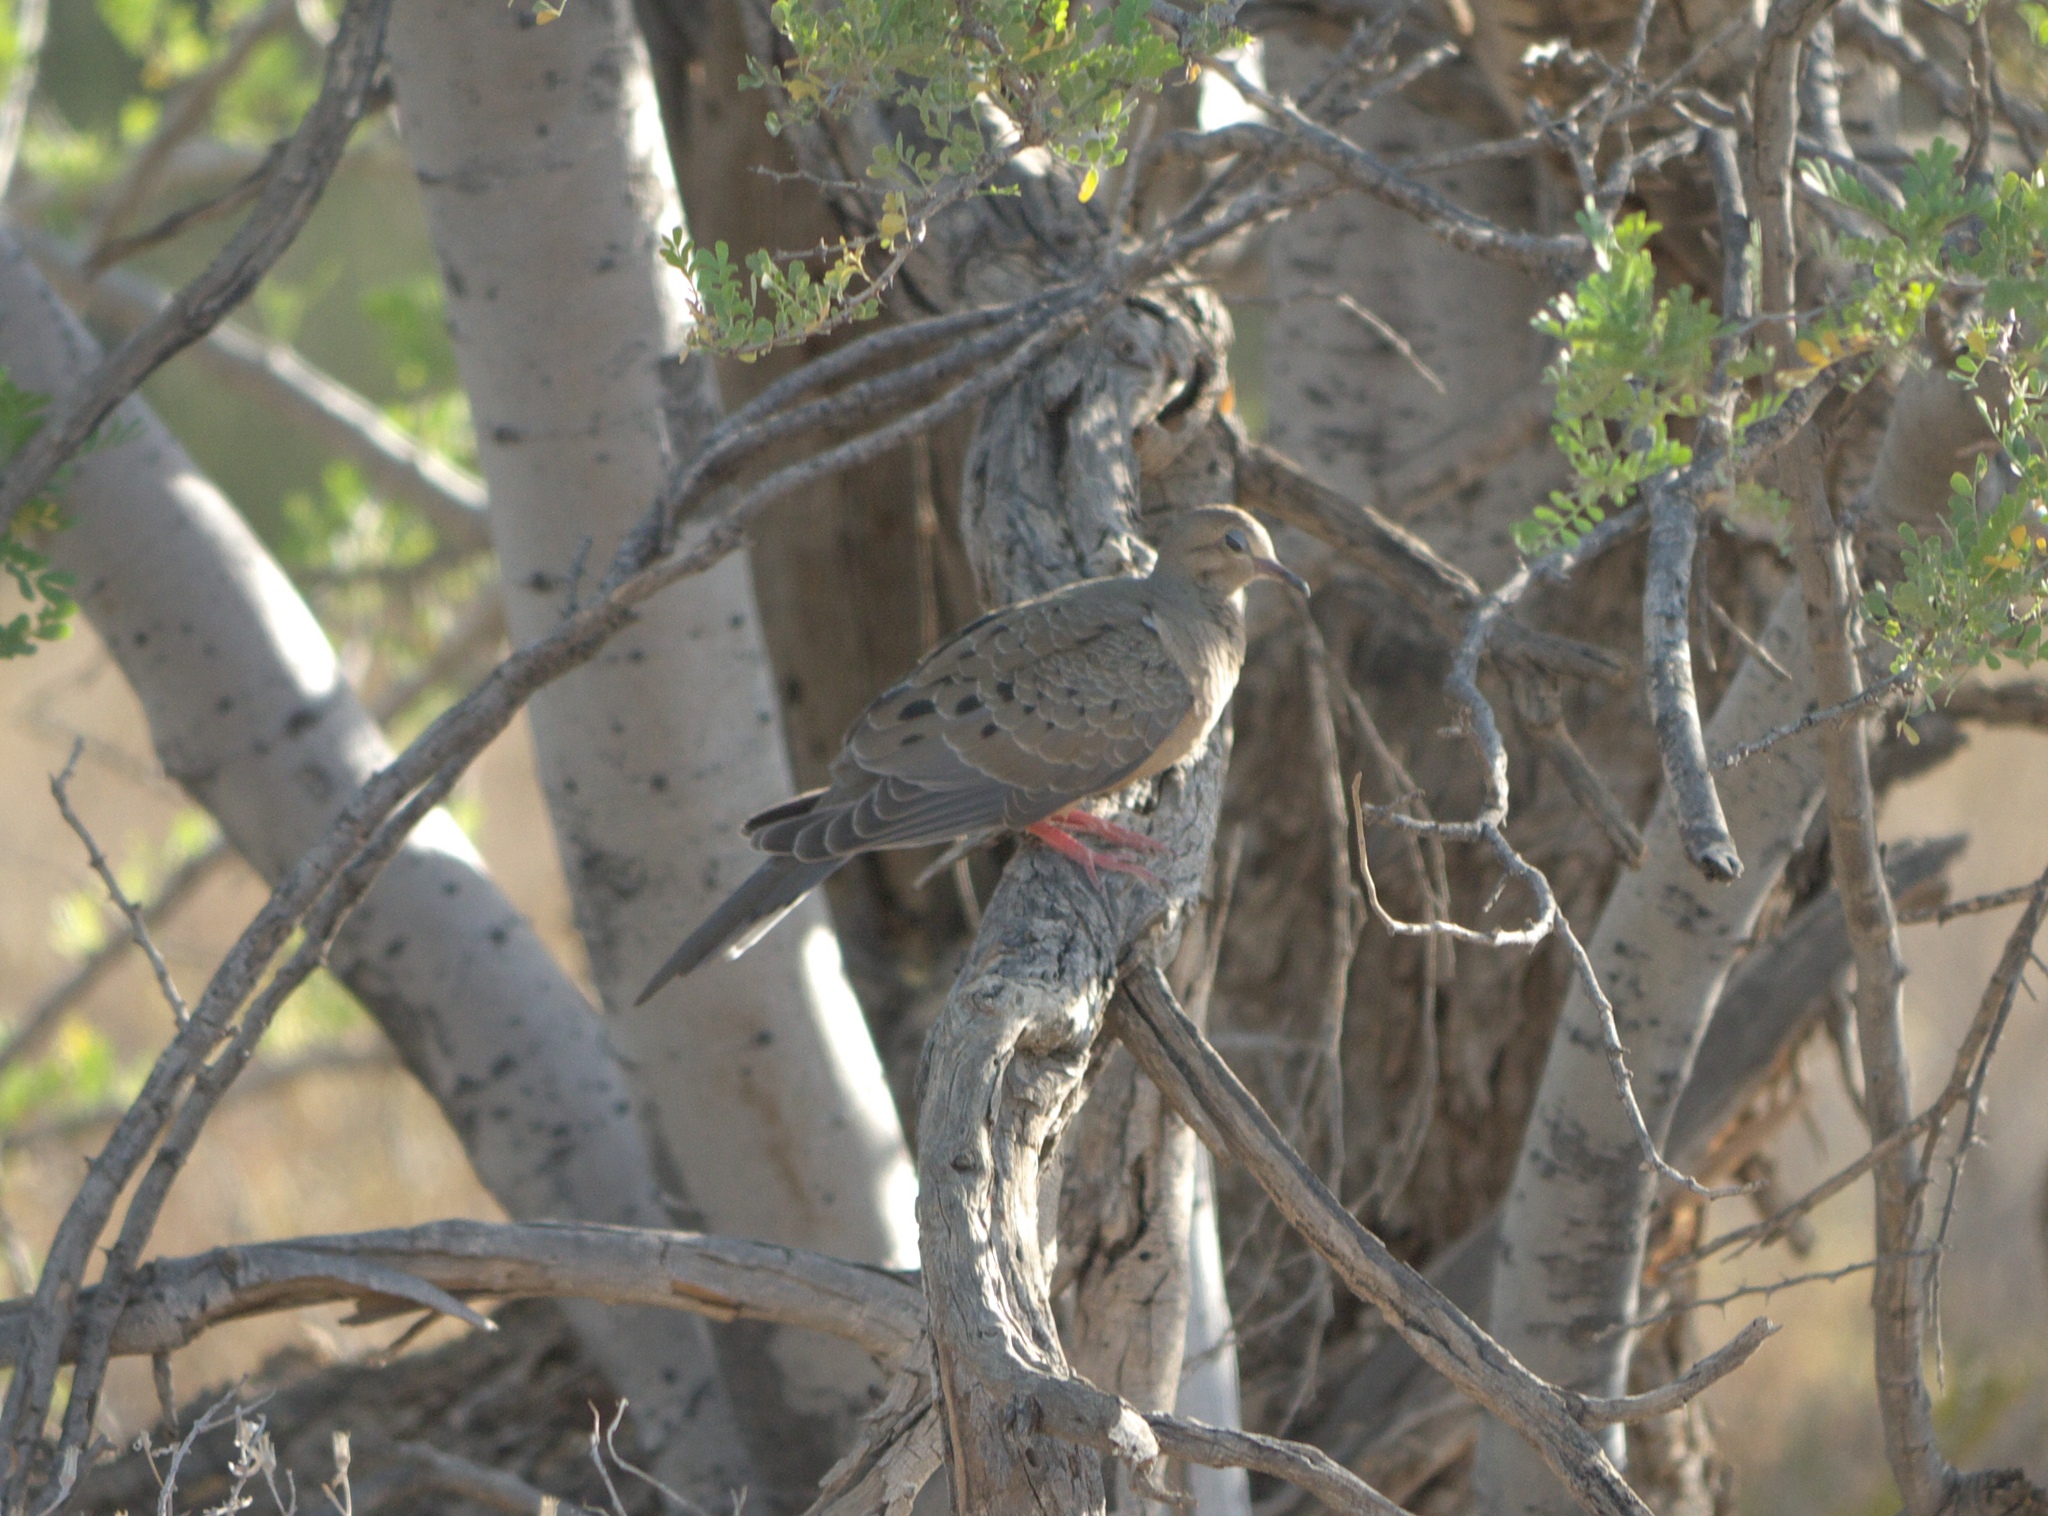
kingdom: Animalia
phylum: Chordata
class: Aves
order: Columbiformes
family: Columbidae
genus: Zenaida
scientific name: Zenaida macroura
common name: Mourning dove
